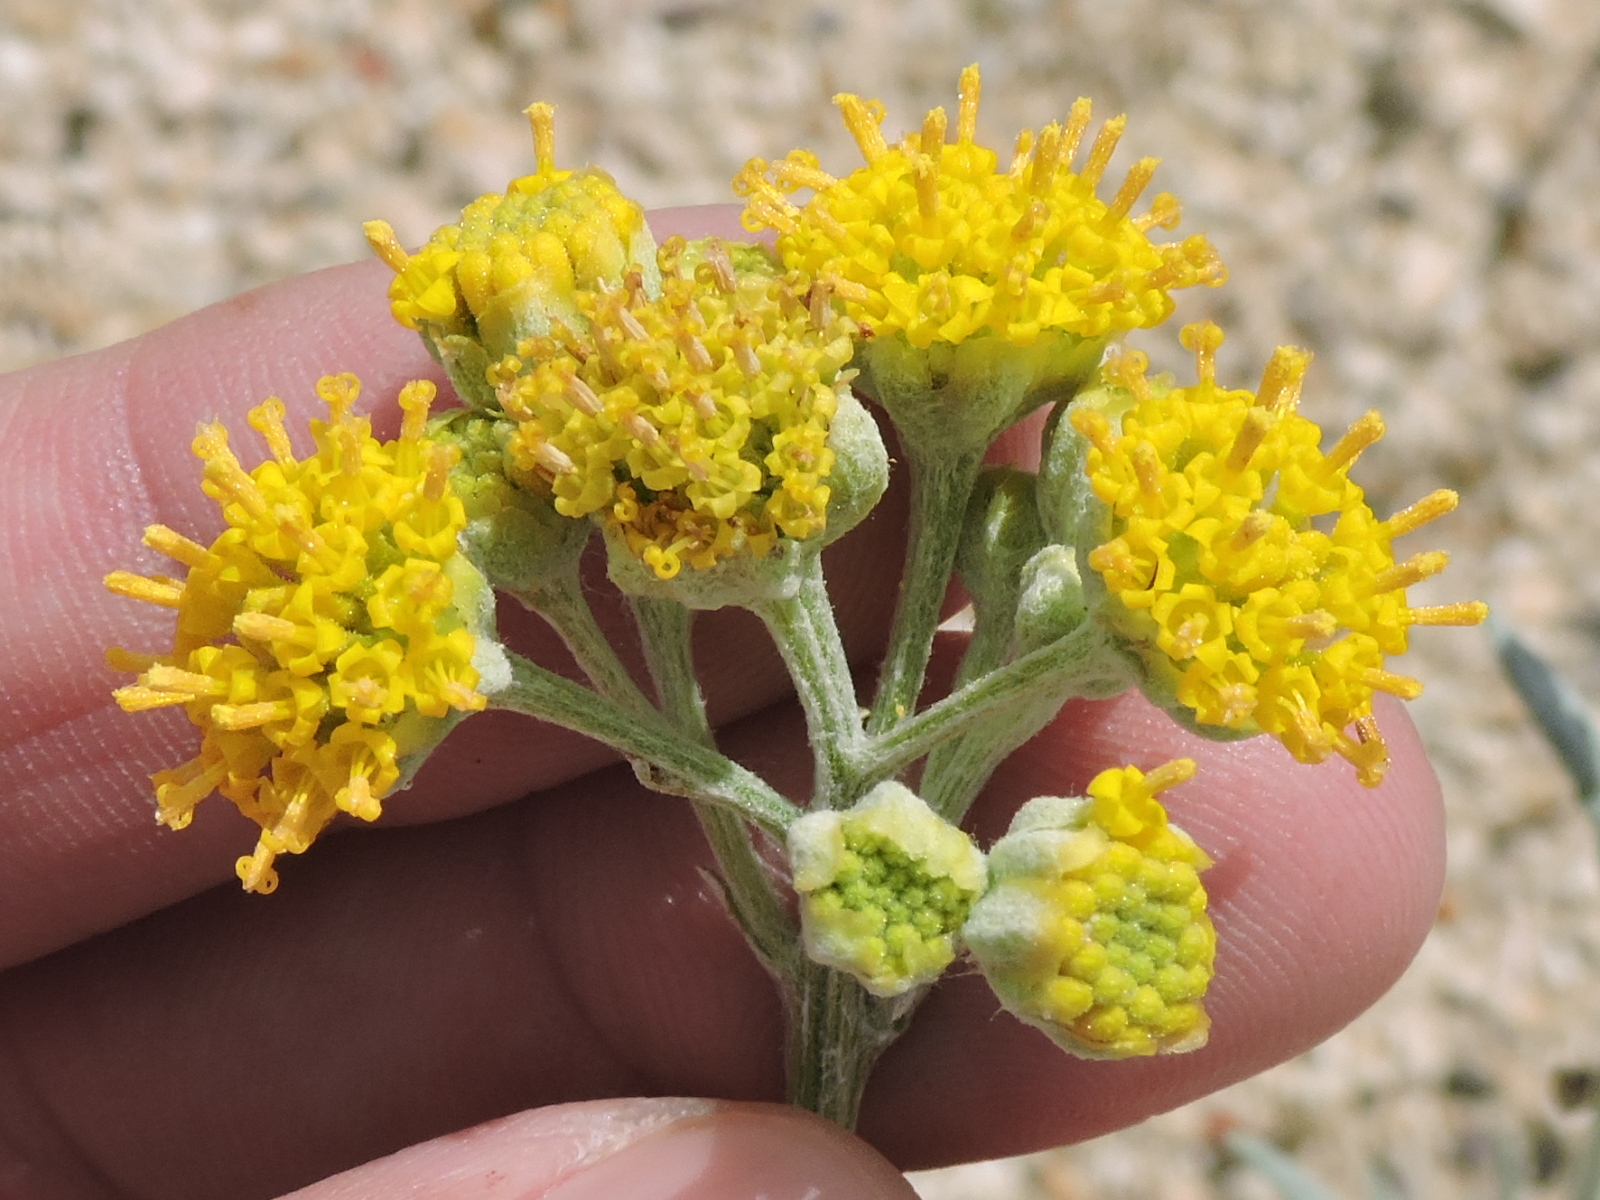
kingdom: Plantae
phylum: Tracheophyta
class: Magnoliopsida
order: Asterales
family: Asteraceae
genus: Hymenopappus
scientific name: Hymenopappus flavescens
